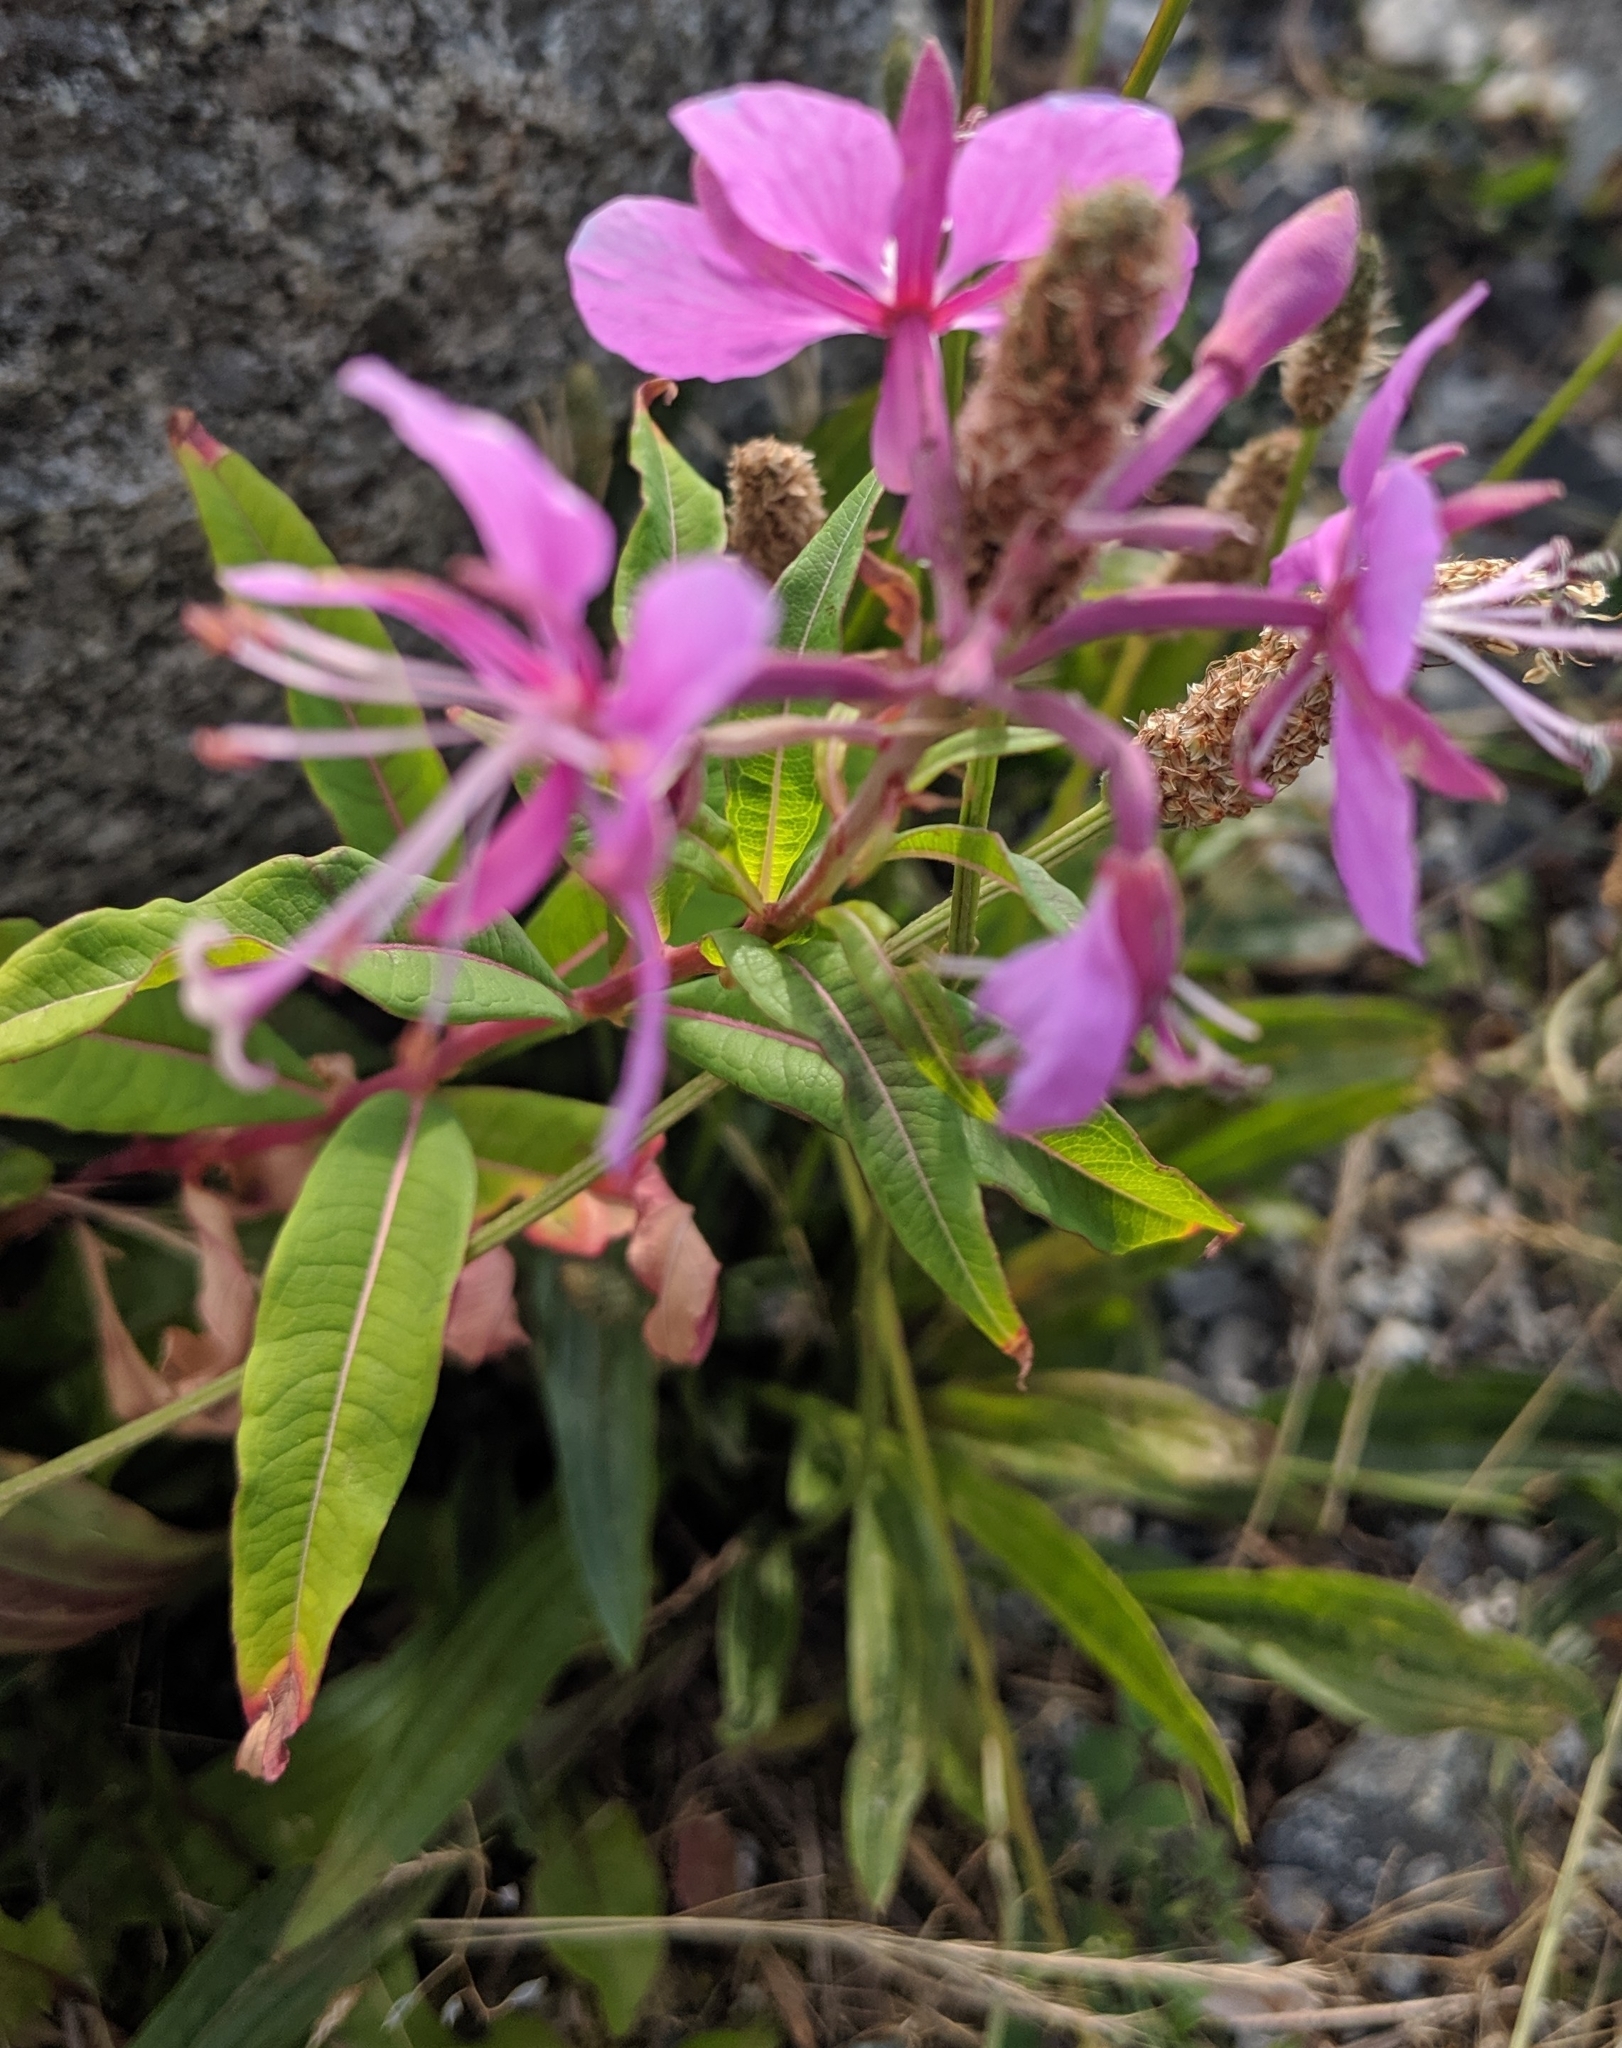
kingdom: Plantae
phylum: Tracheophyta
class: Magnoliopsida
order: Myrtales
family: Onagraceae
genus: Chamaenerion
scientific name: Chamaenerion angustifolium
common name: Fireweed
